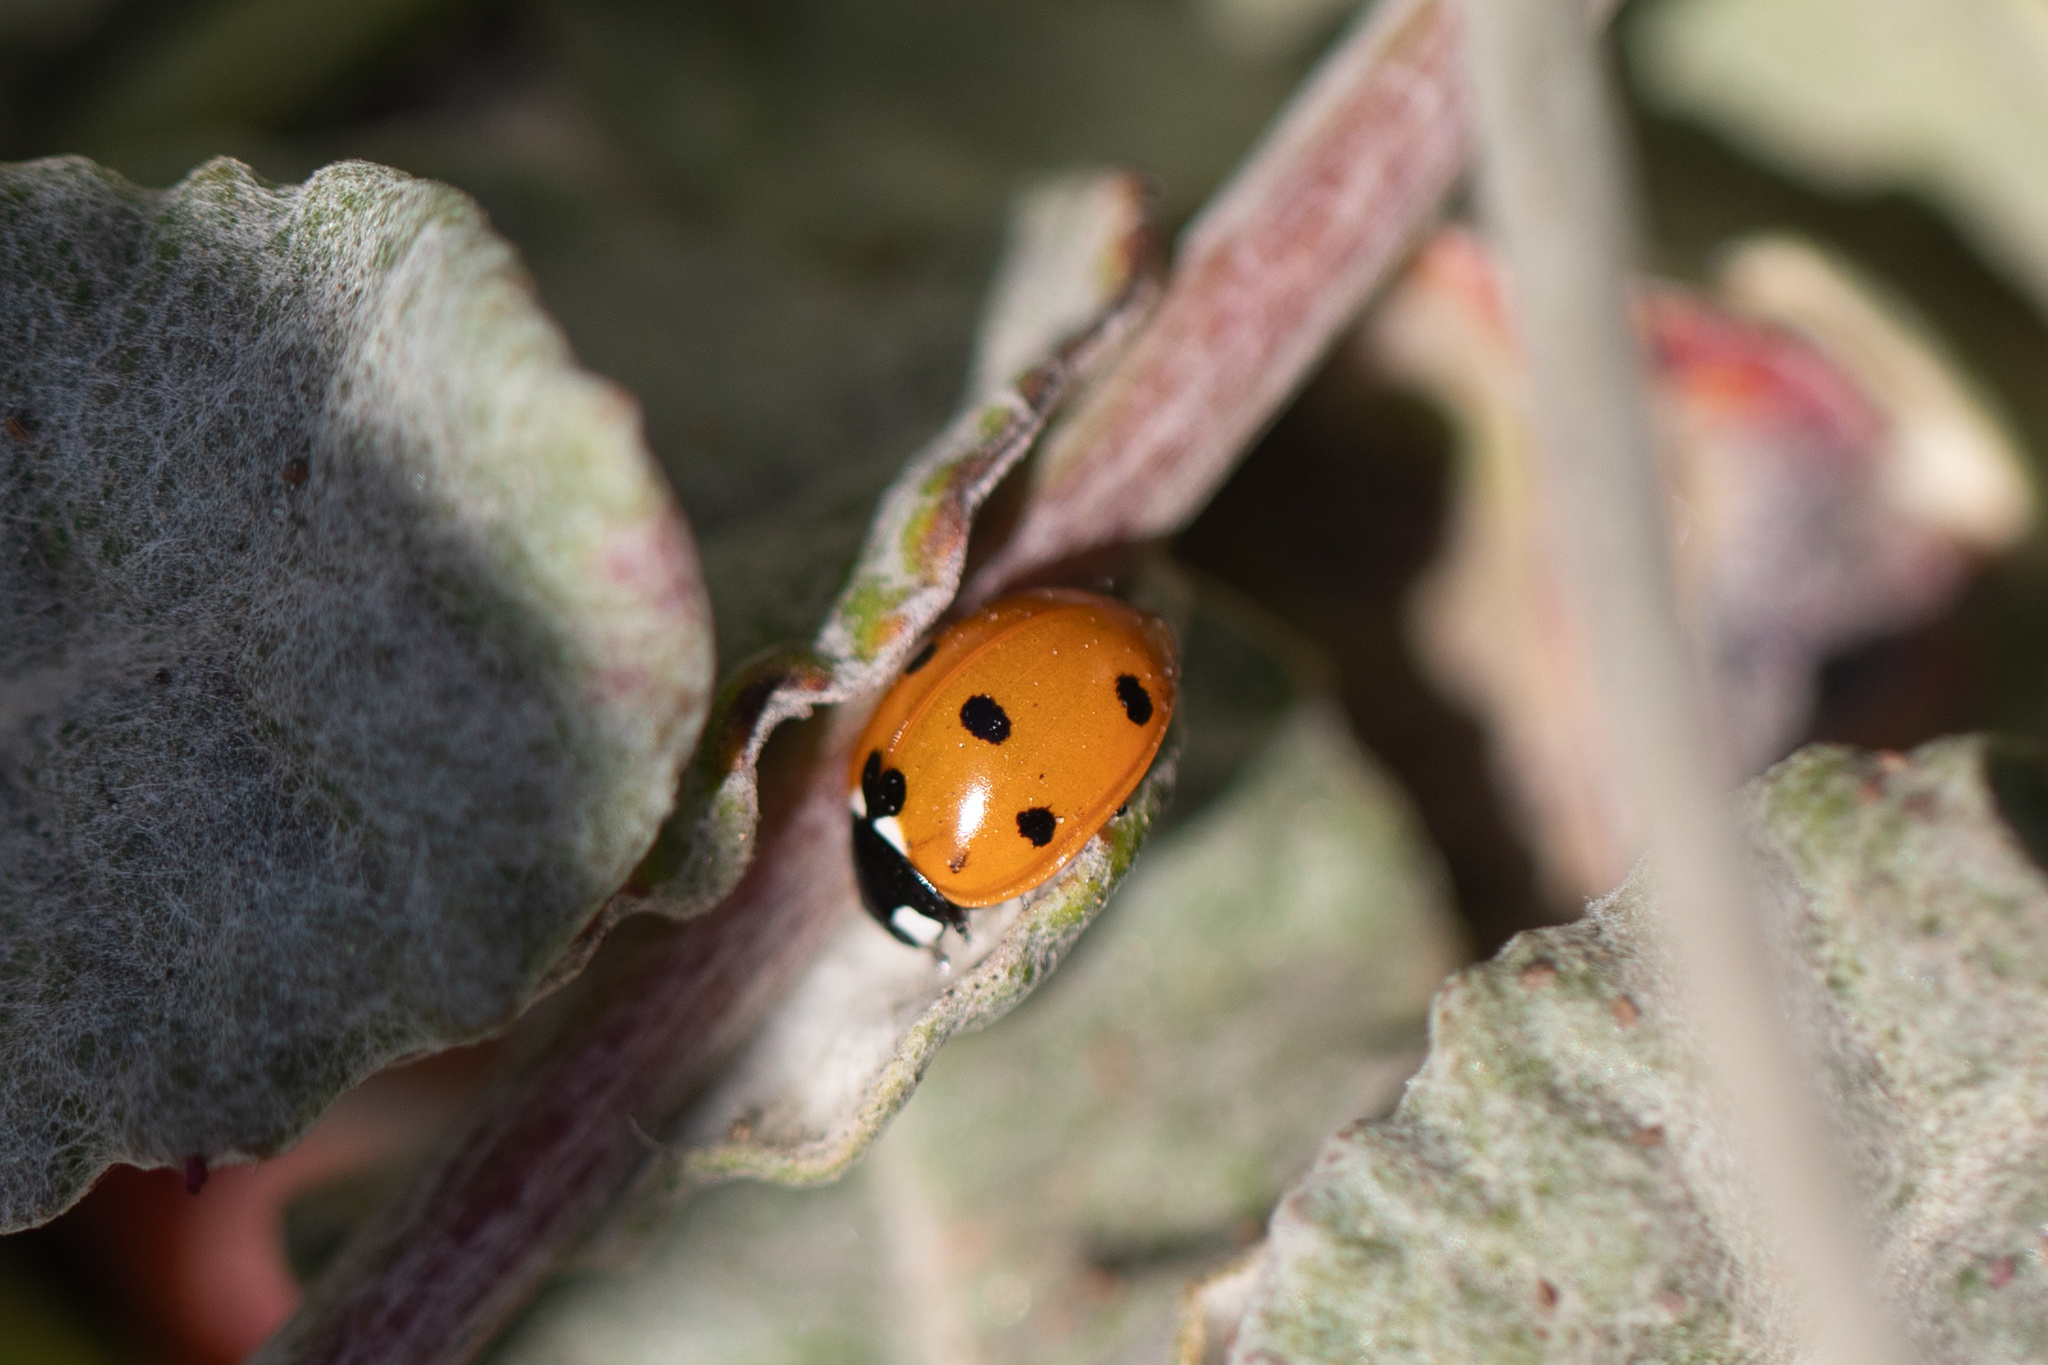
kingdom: Animalia
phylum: Arthropoda
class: Insecta
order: Coleoptera
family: Coccinellidae
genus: Coccinella
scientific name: Coccinella septempunctata
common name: Sevenspotted lady beetle
